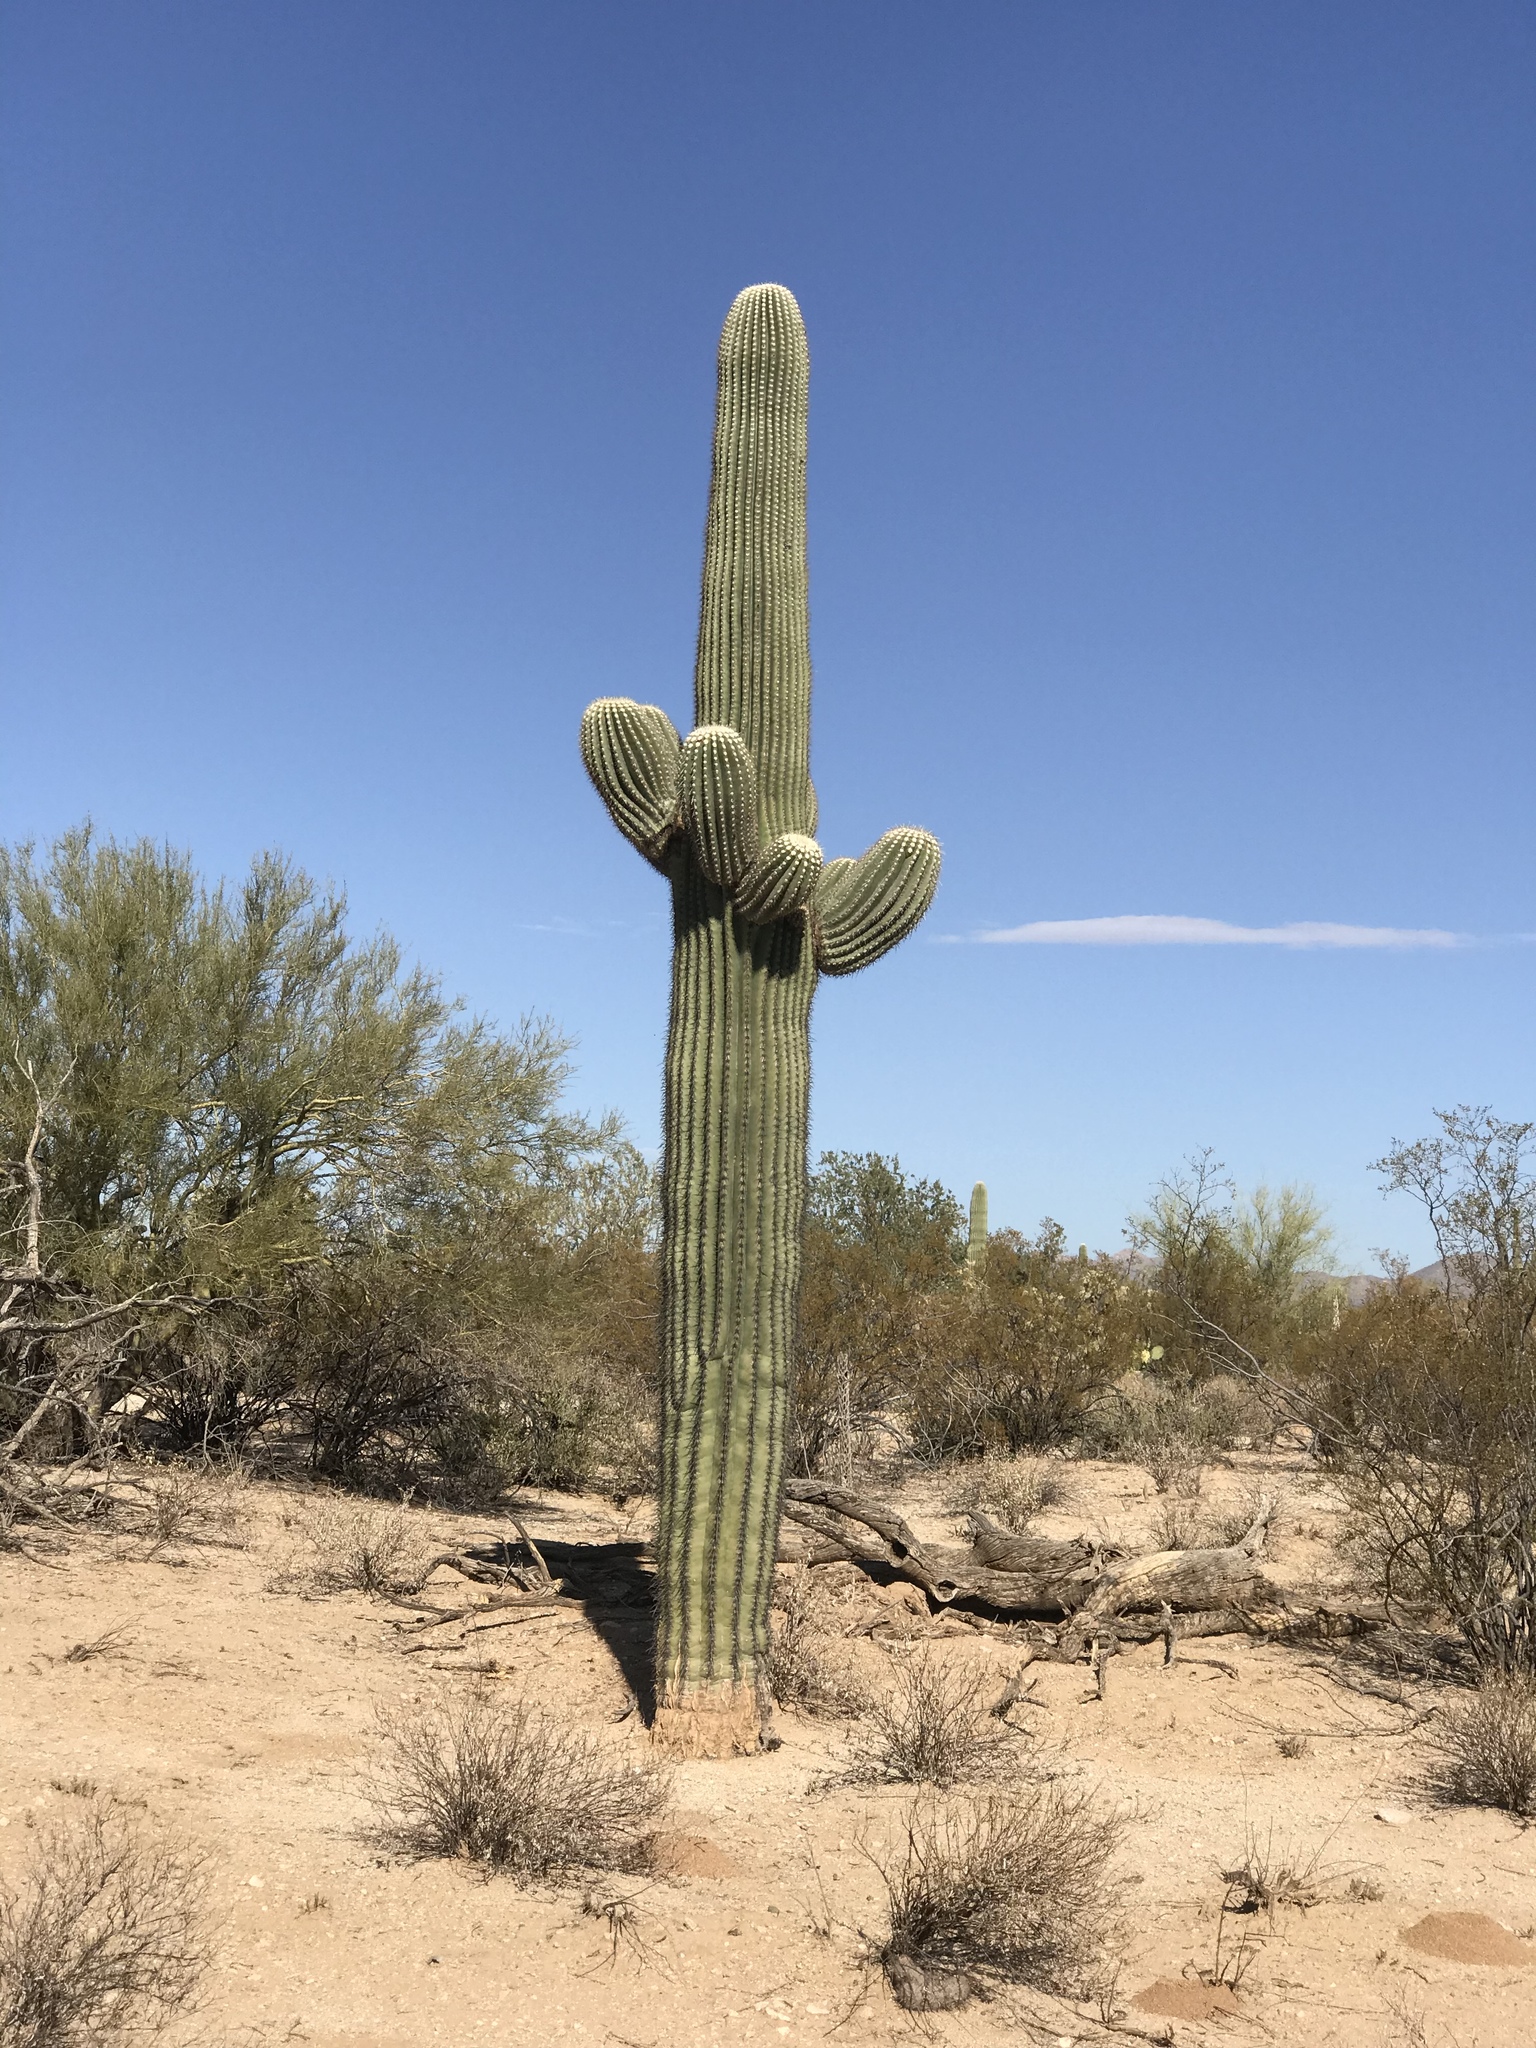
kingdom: Plantae
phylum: Tracheophyta
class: Magnoliopsida
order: Caryophyllales
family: Cactaceae
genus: Carnegiea
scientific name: Carnegiea gigantea
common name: Saguaro
